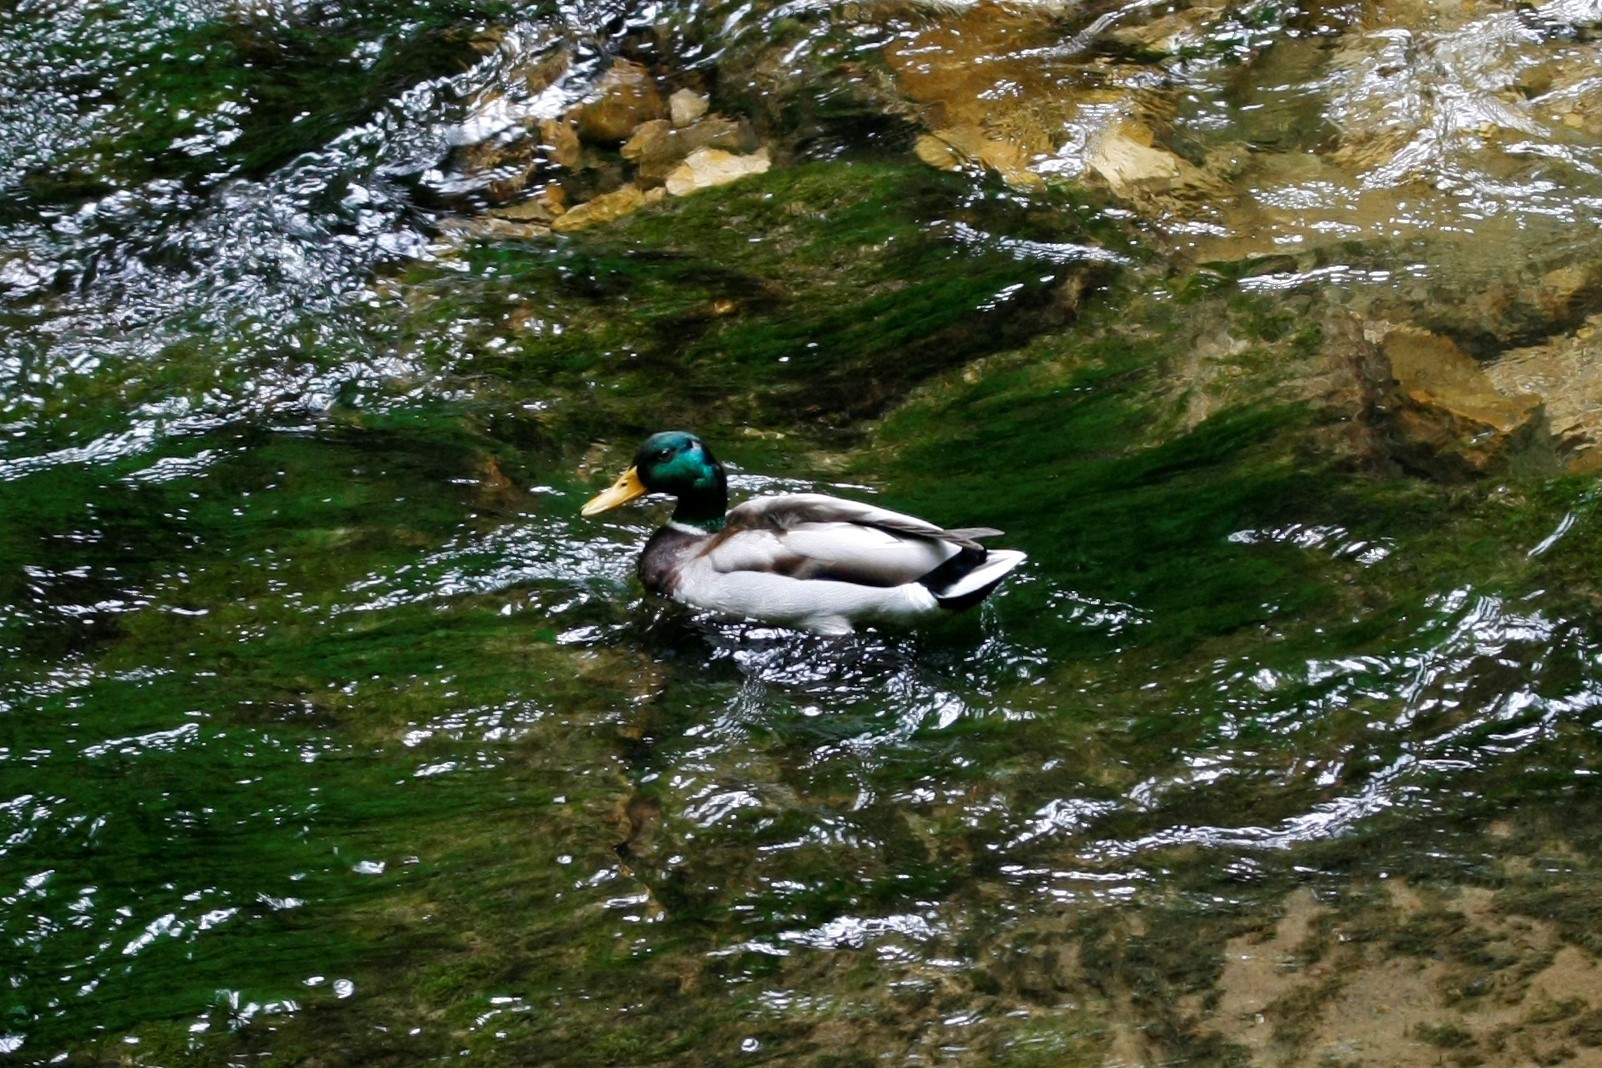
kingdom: Animalia
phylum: Chordata
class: Aves
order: Anseriformes
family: Anatidae
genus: Anas
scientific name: Anas platyrhynchos
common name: Mallard
